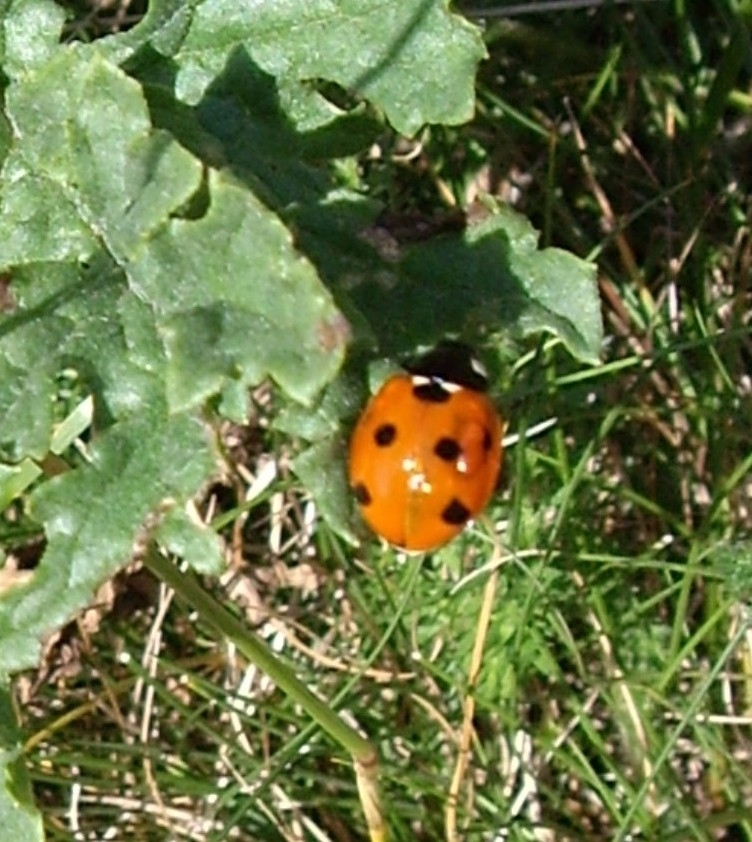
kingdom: Animalia
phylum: Arthropoda
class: Insecta
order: Coleoptera
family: Coccinellidae
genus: Coccinella
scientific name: Coccinella septempunctata
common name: Sevenspotted lady beetle
